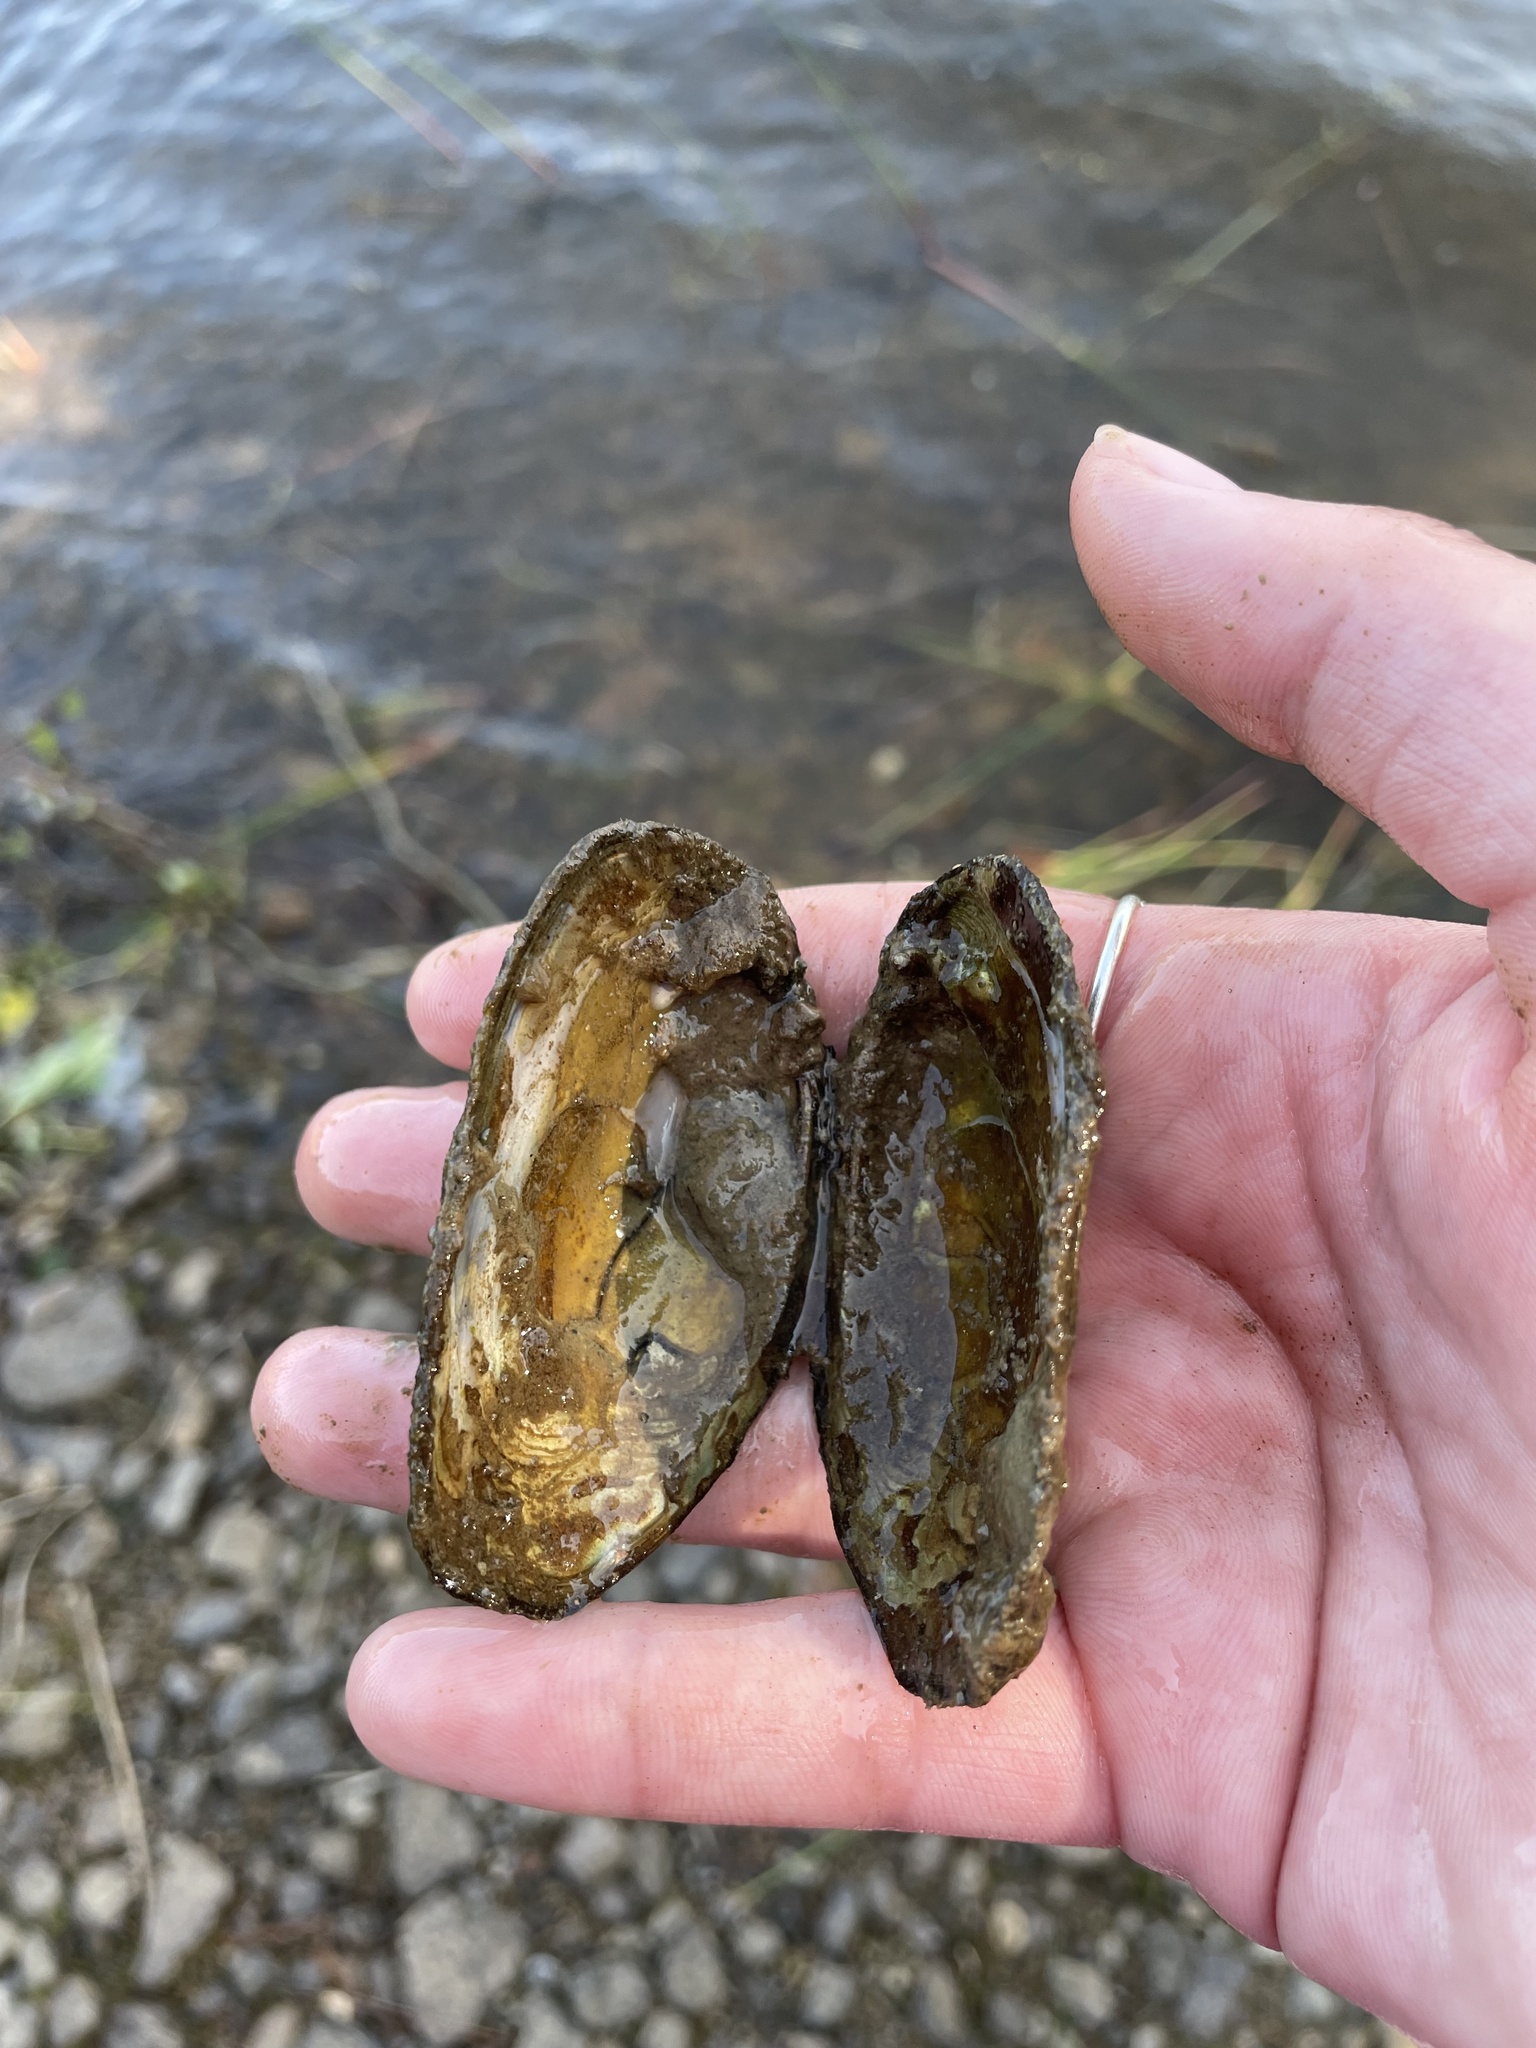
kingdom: Animalia
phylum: Mollusca
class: Bivalvia
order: Unionida
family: Unionidae
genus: Elliptio
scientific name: Elliptio complanata
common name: Eastern elliptio
